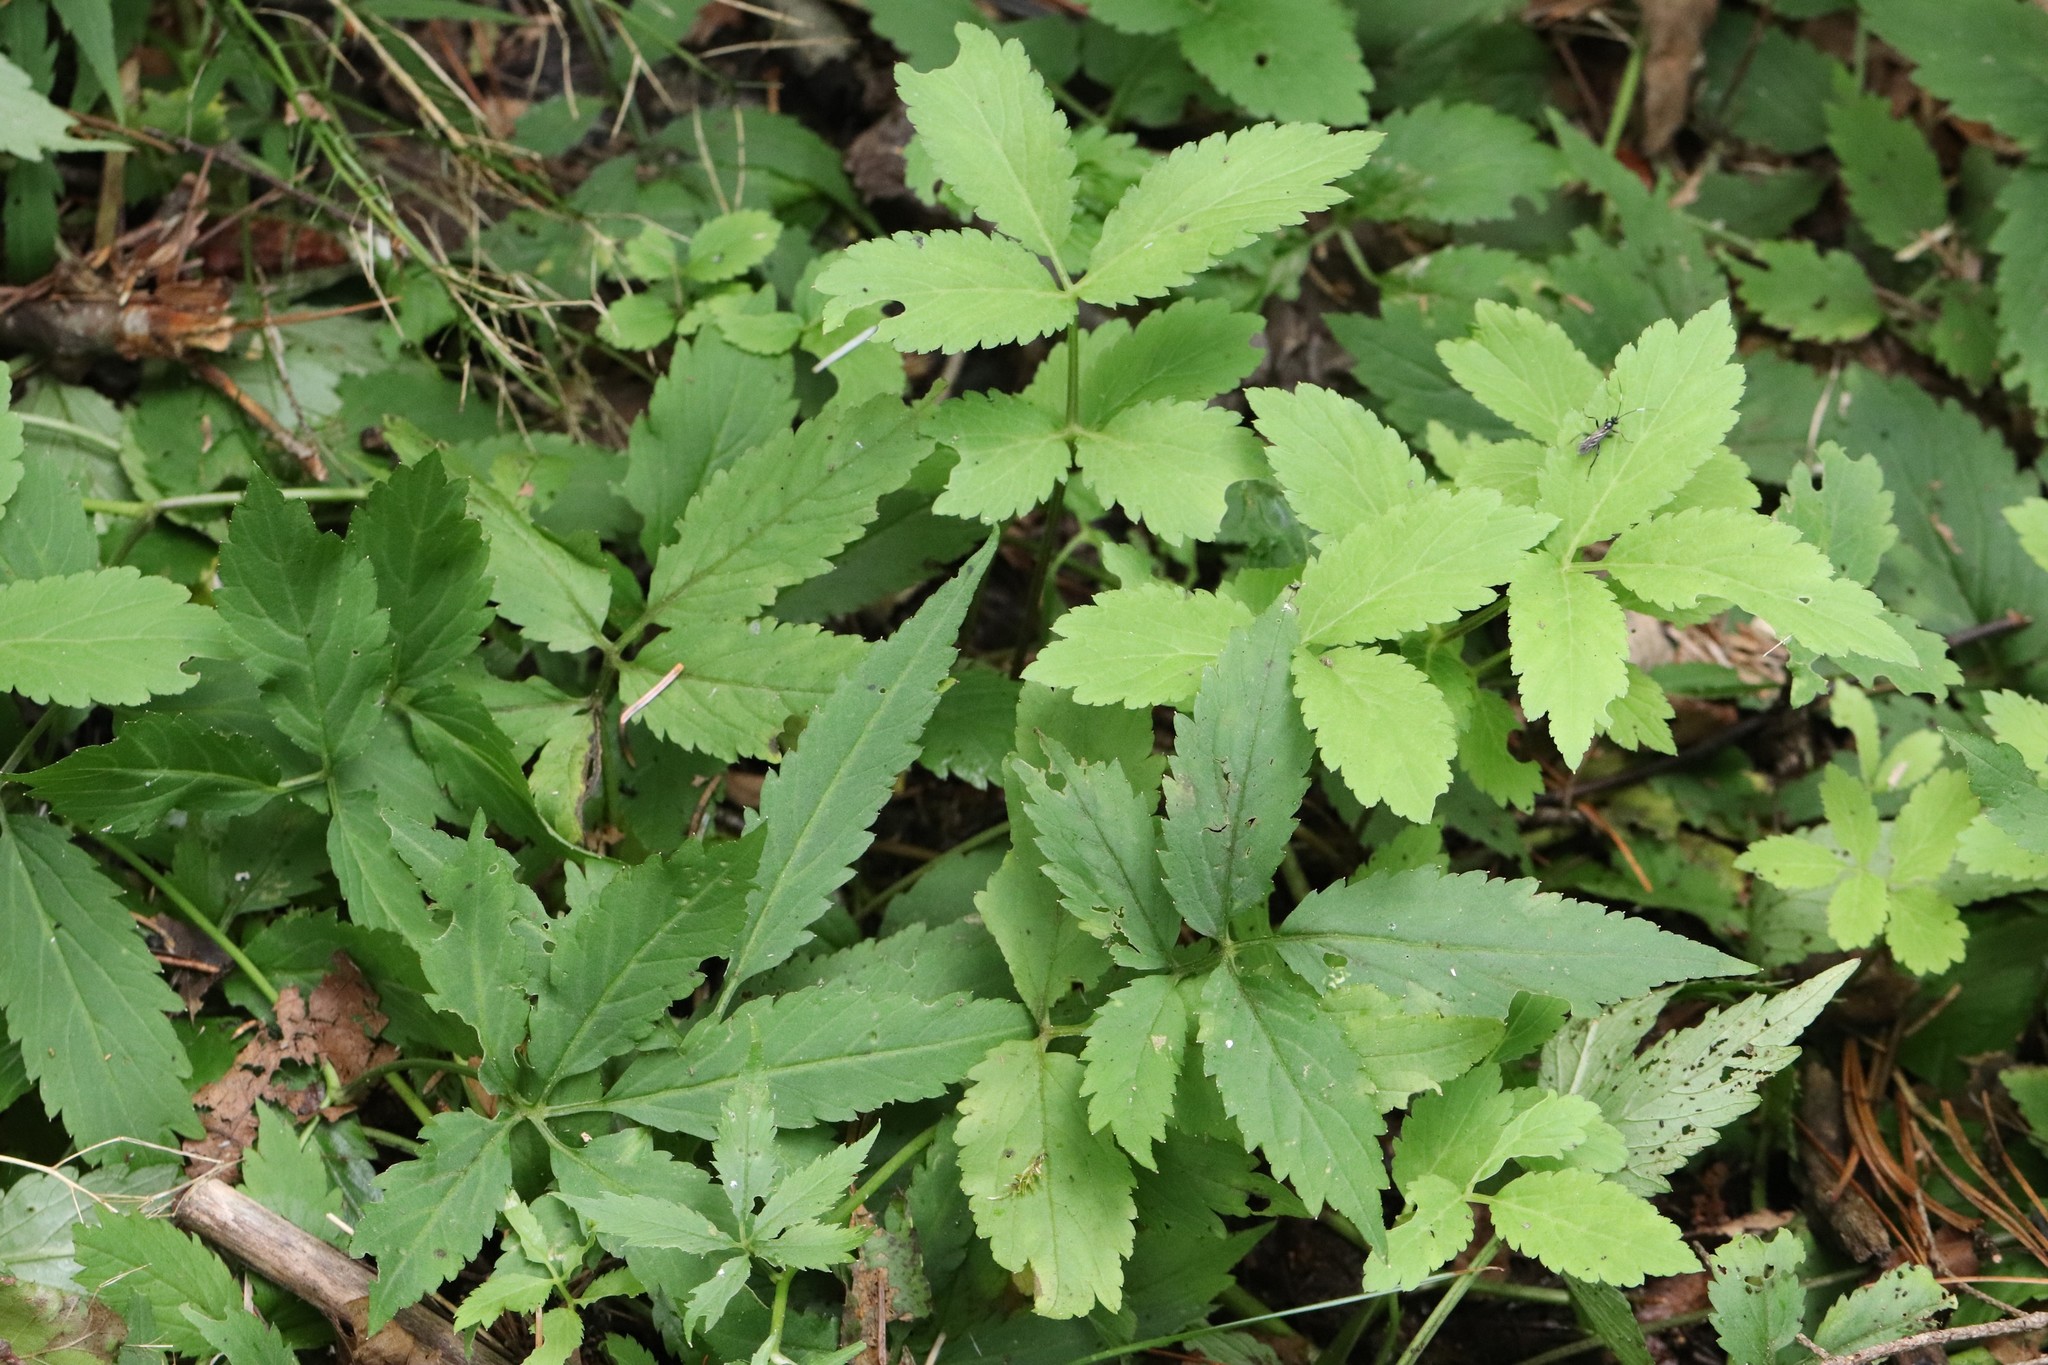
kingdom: Plantae
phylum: Tracheophyta
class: Magnoliopsida
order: Brassicales
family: Brassicaceae
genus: Cardamine
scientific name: Cardamine macrophylla
